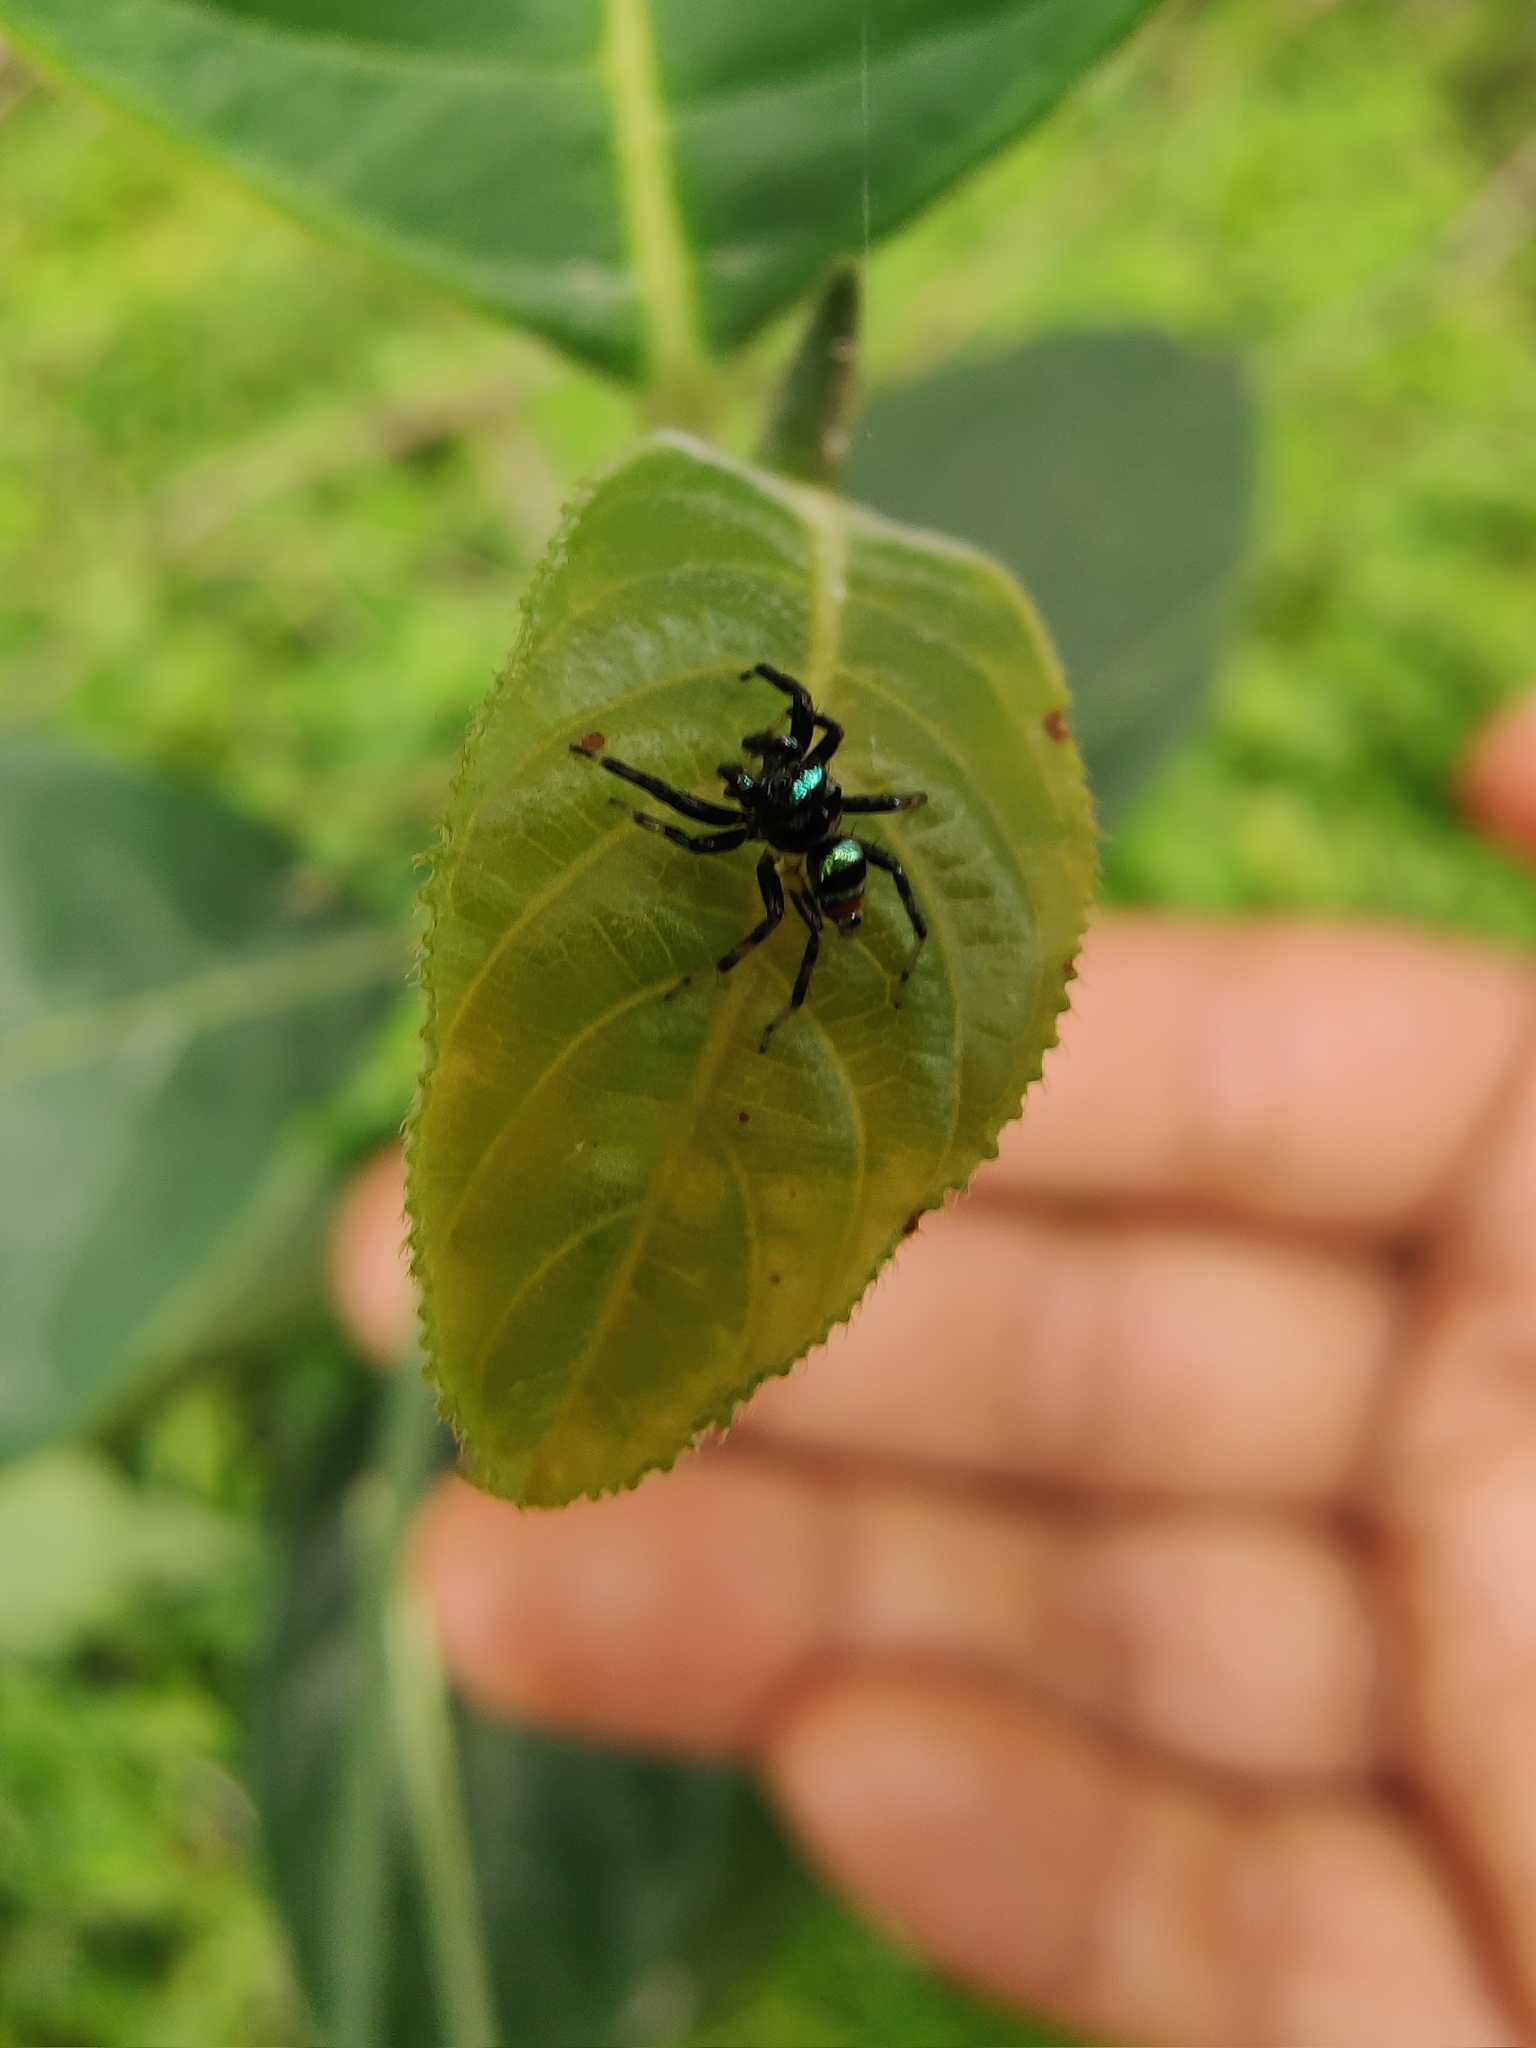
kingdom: Animalia
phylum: Arthropoda
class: Arachnida
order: Araneae
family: Salticidae
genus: Phintella
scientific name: Phintella vittata
